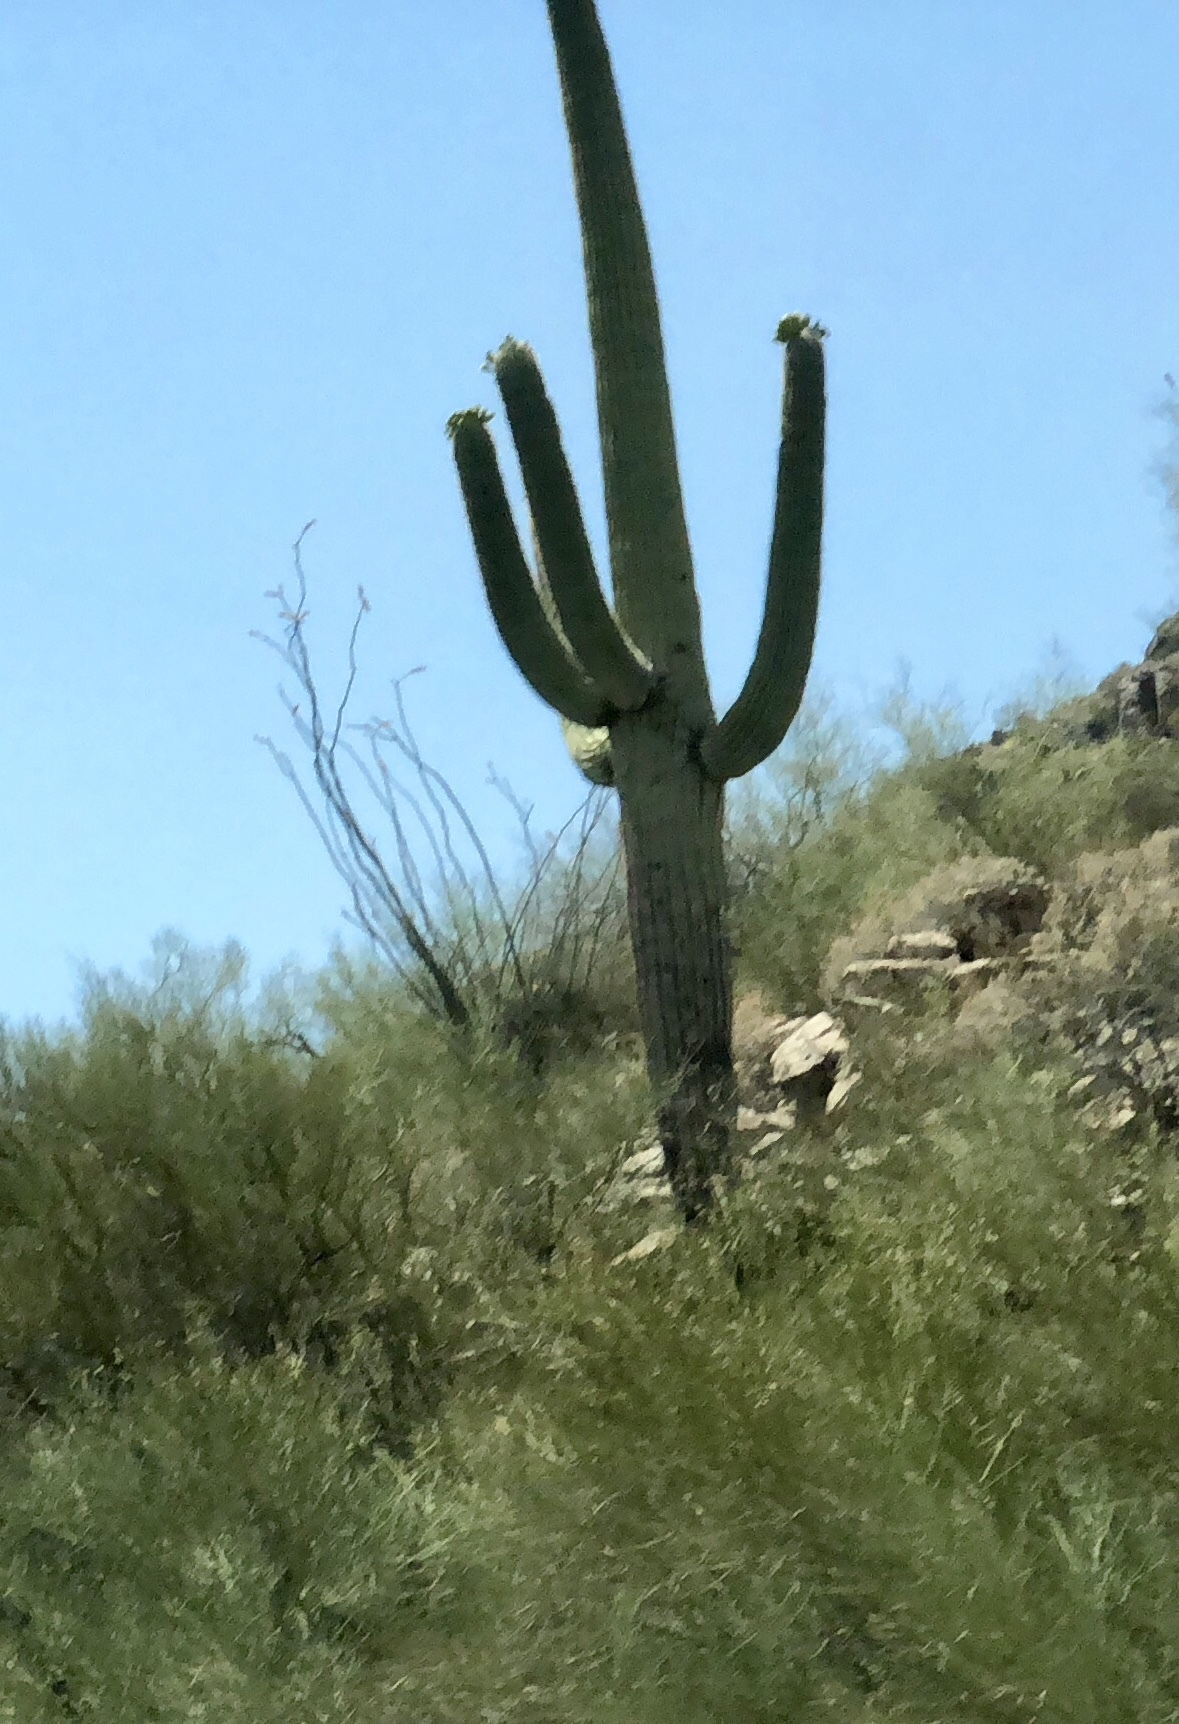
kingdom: Plantae
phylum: Tracheophyta
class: Magnoliopsida
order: Caryophyllales
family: Cactaceae
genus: Carnegiea
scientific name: Carnegiea gigantea
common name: Saguaro
